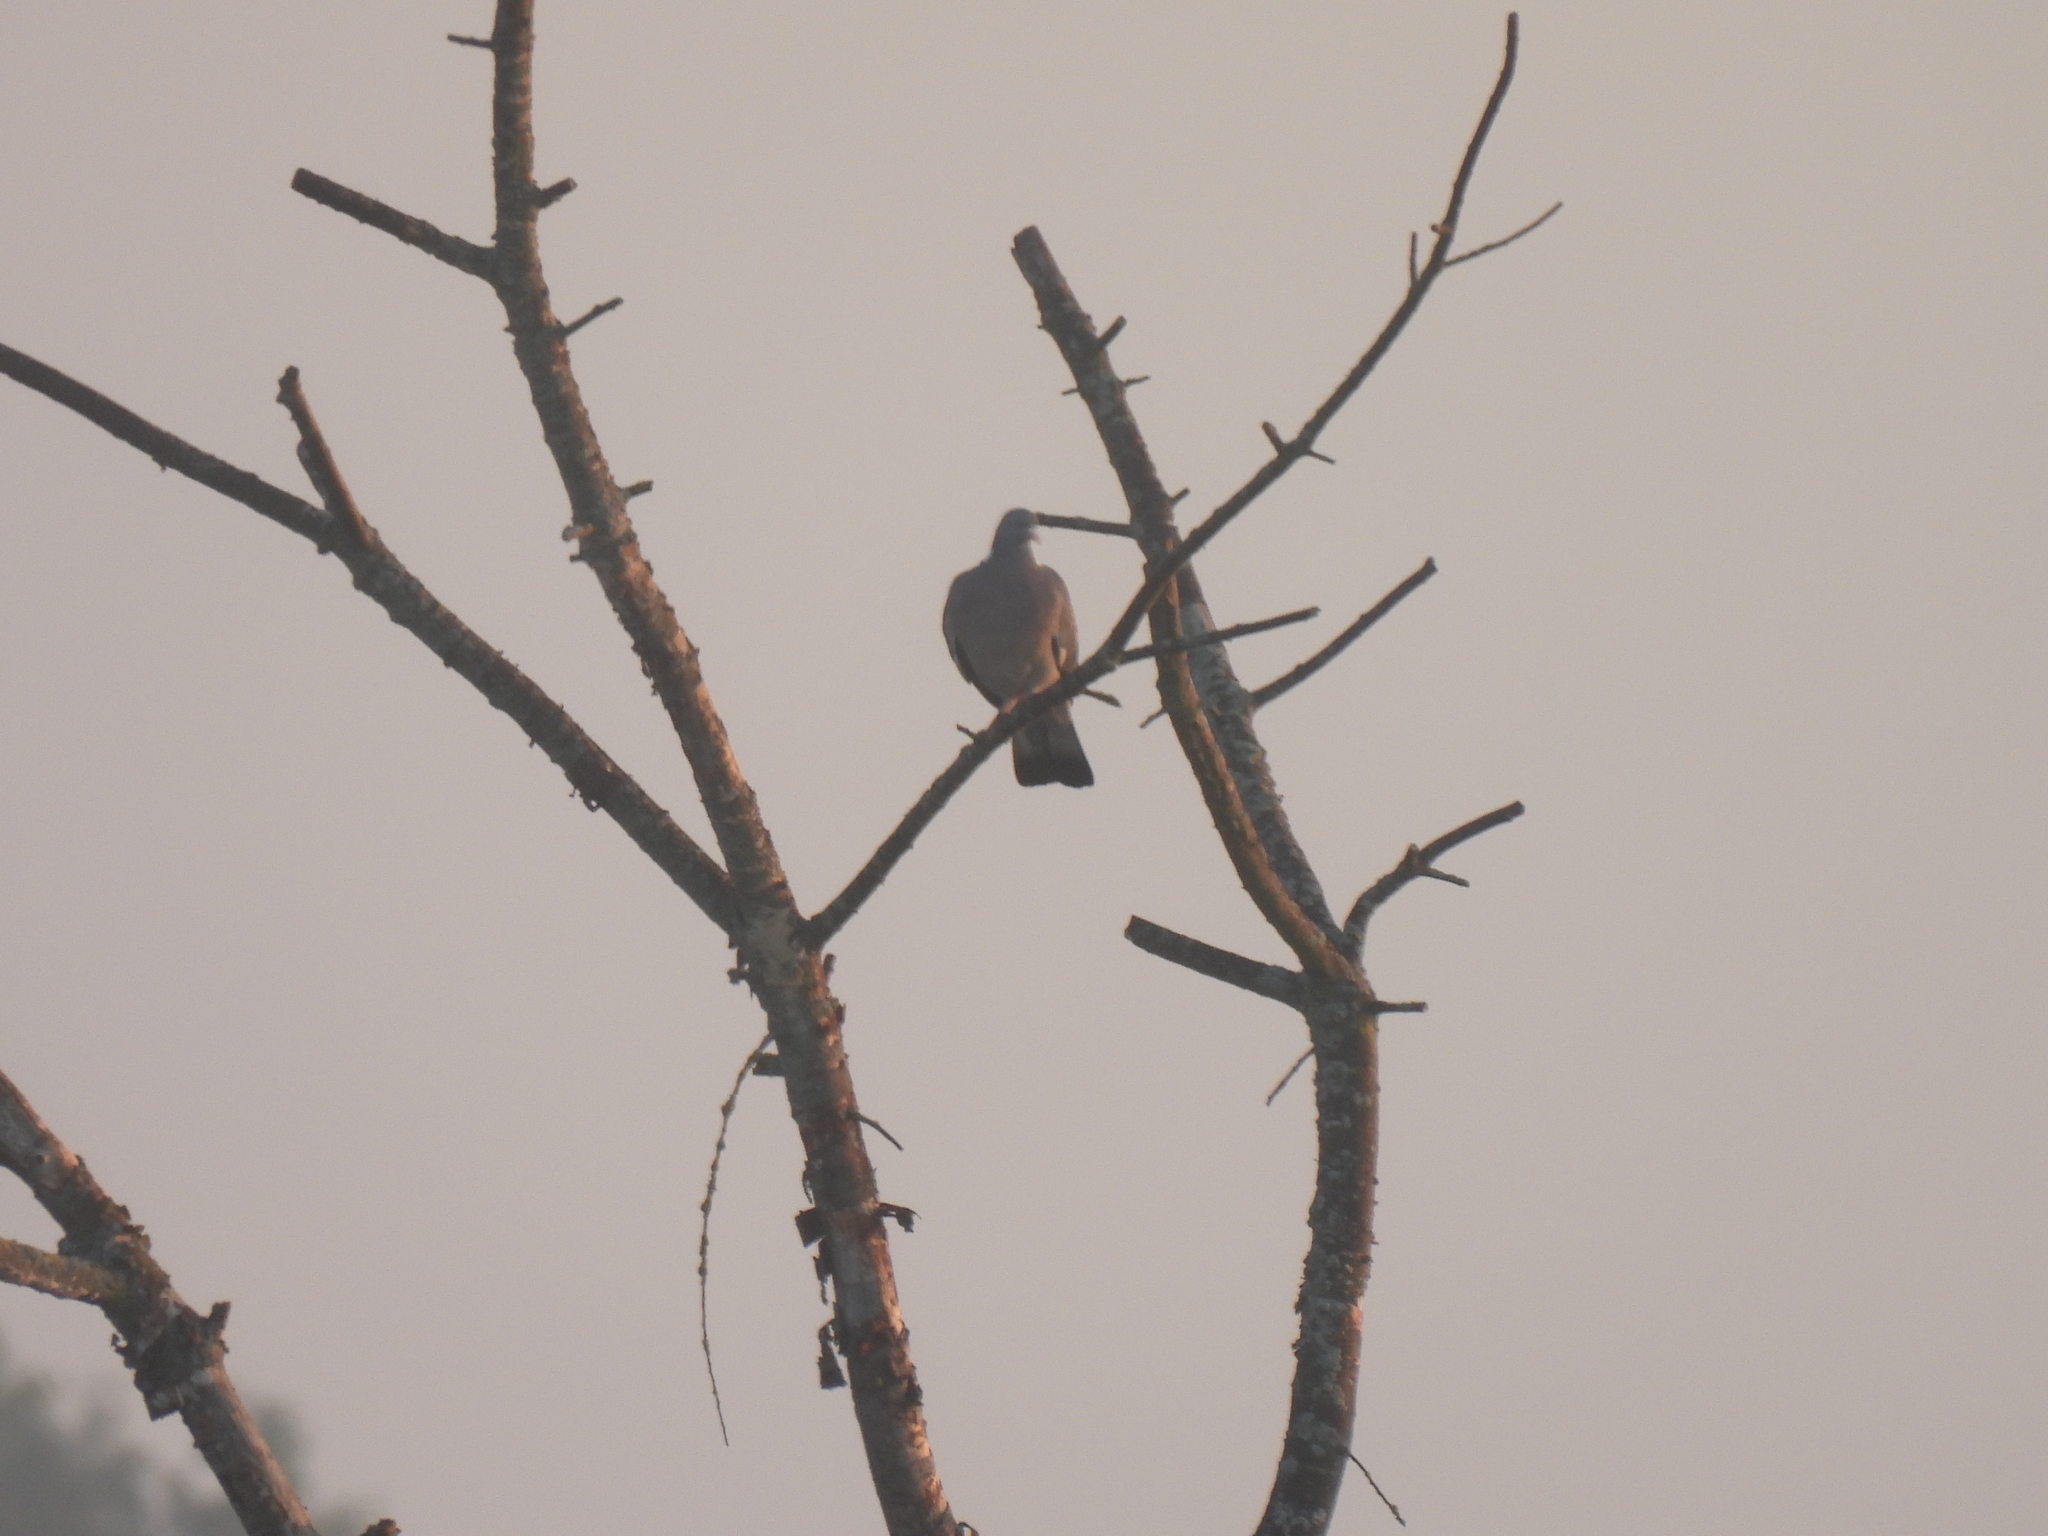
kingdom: Animalia
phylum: Chordata
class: Aves
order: Columbiformes
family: Columbidae
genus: Columba
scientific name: Columba palumbus
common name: Common wood pigeon
